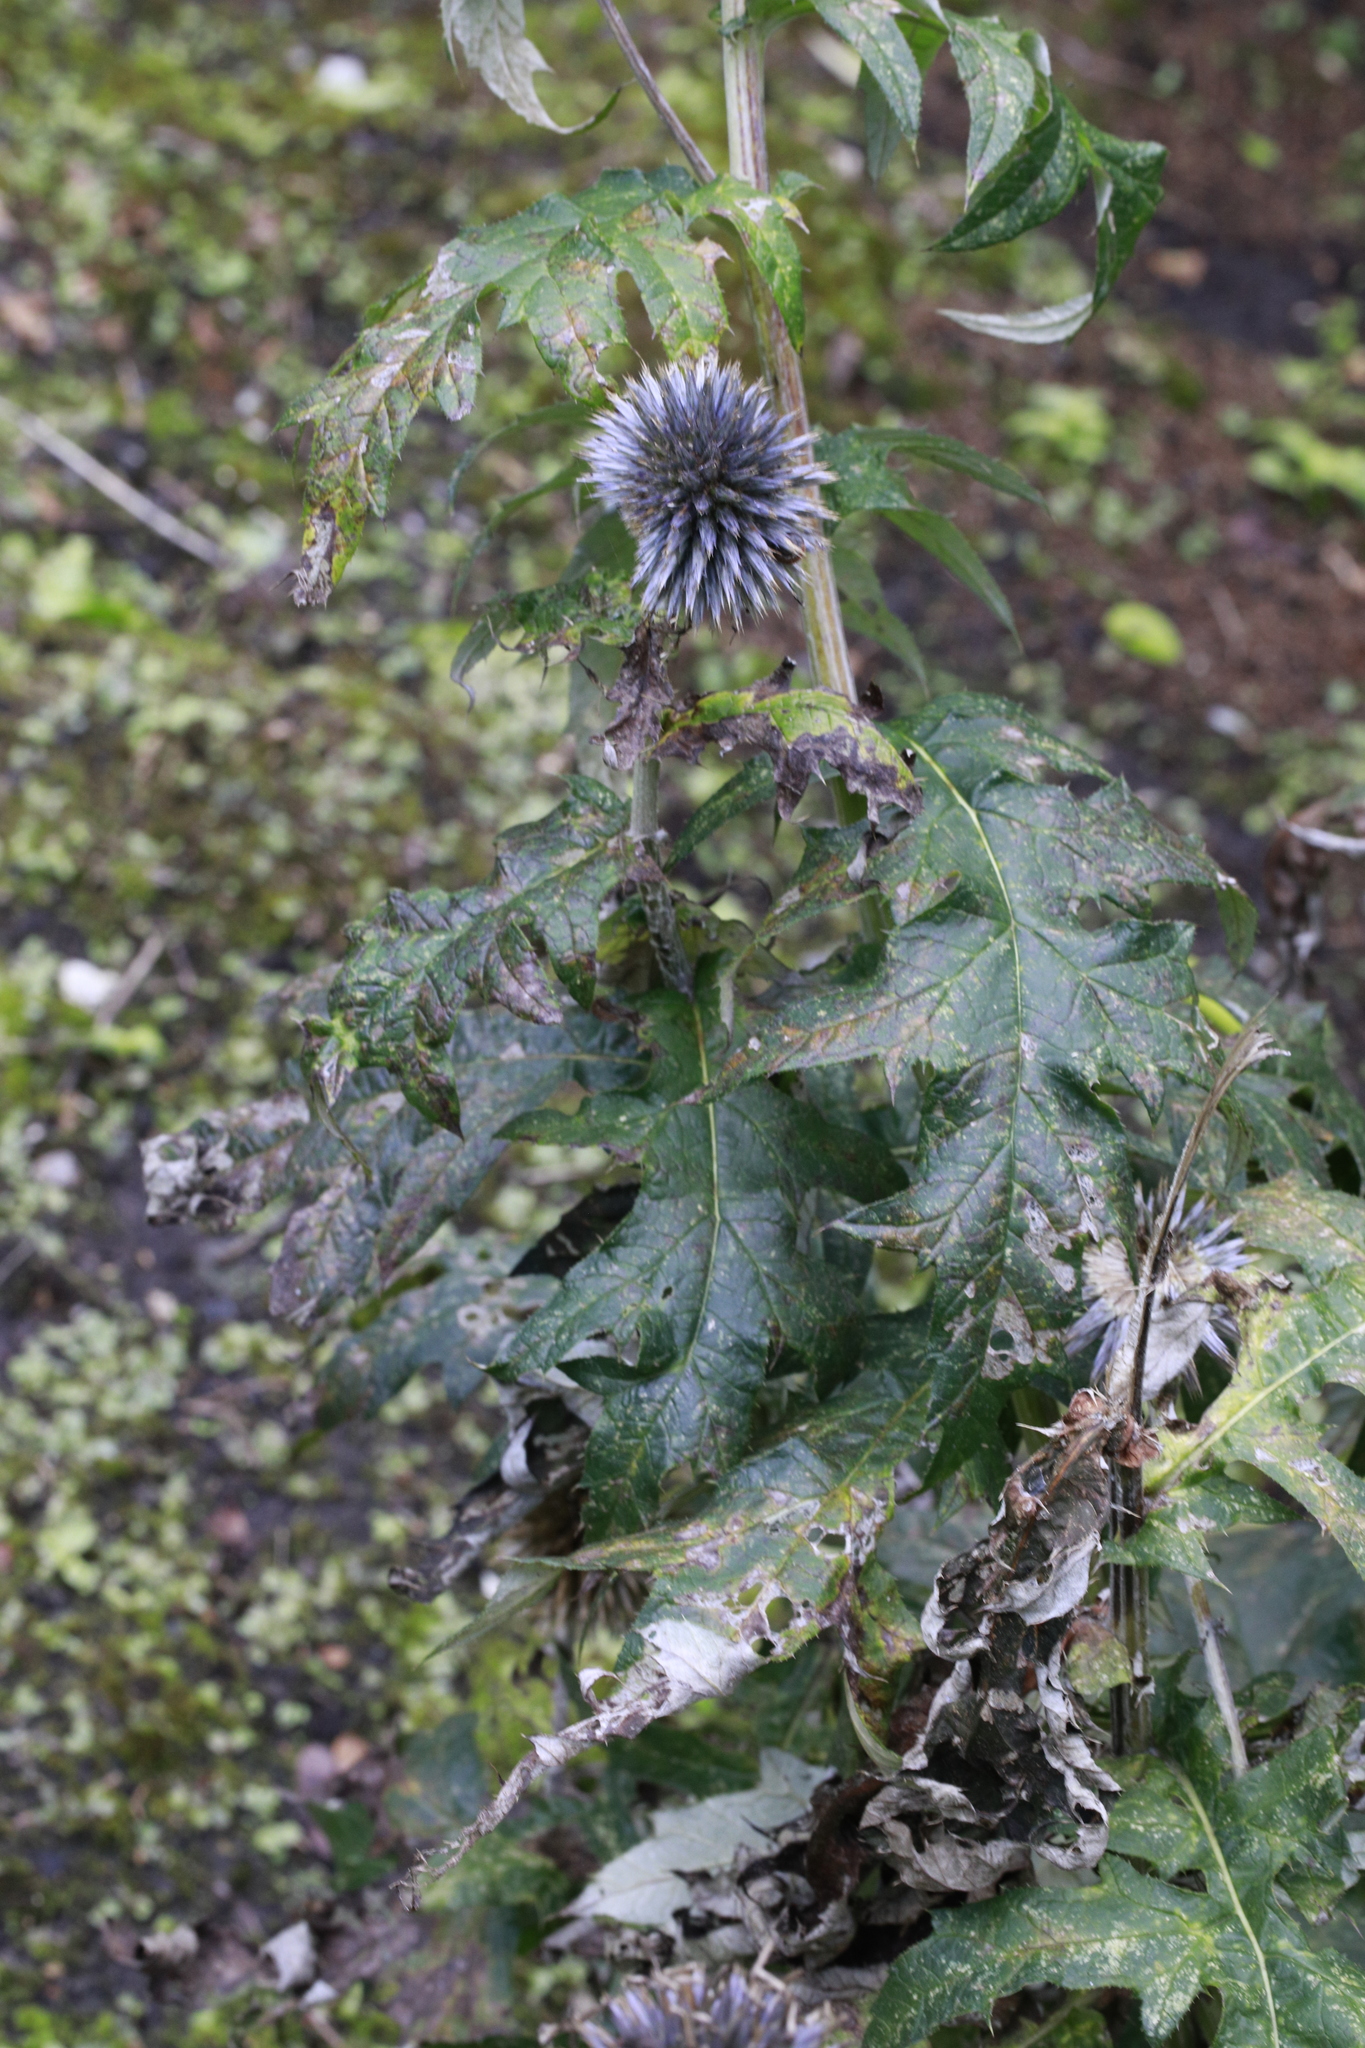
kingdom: Plantae
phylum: Tracheophyta
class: Magnoliopsida
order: Asterales
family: Asteraceae
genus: Echinops
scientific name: Echinops bannaticus
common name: Blue globe-thistle
